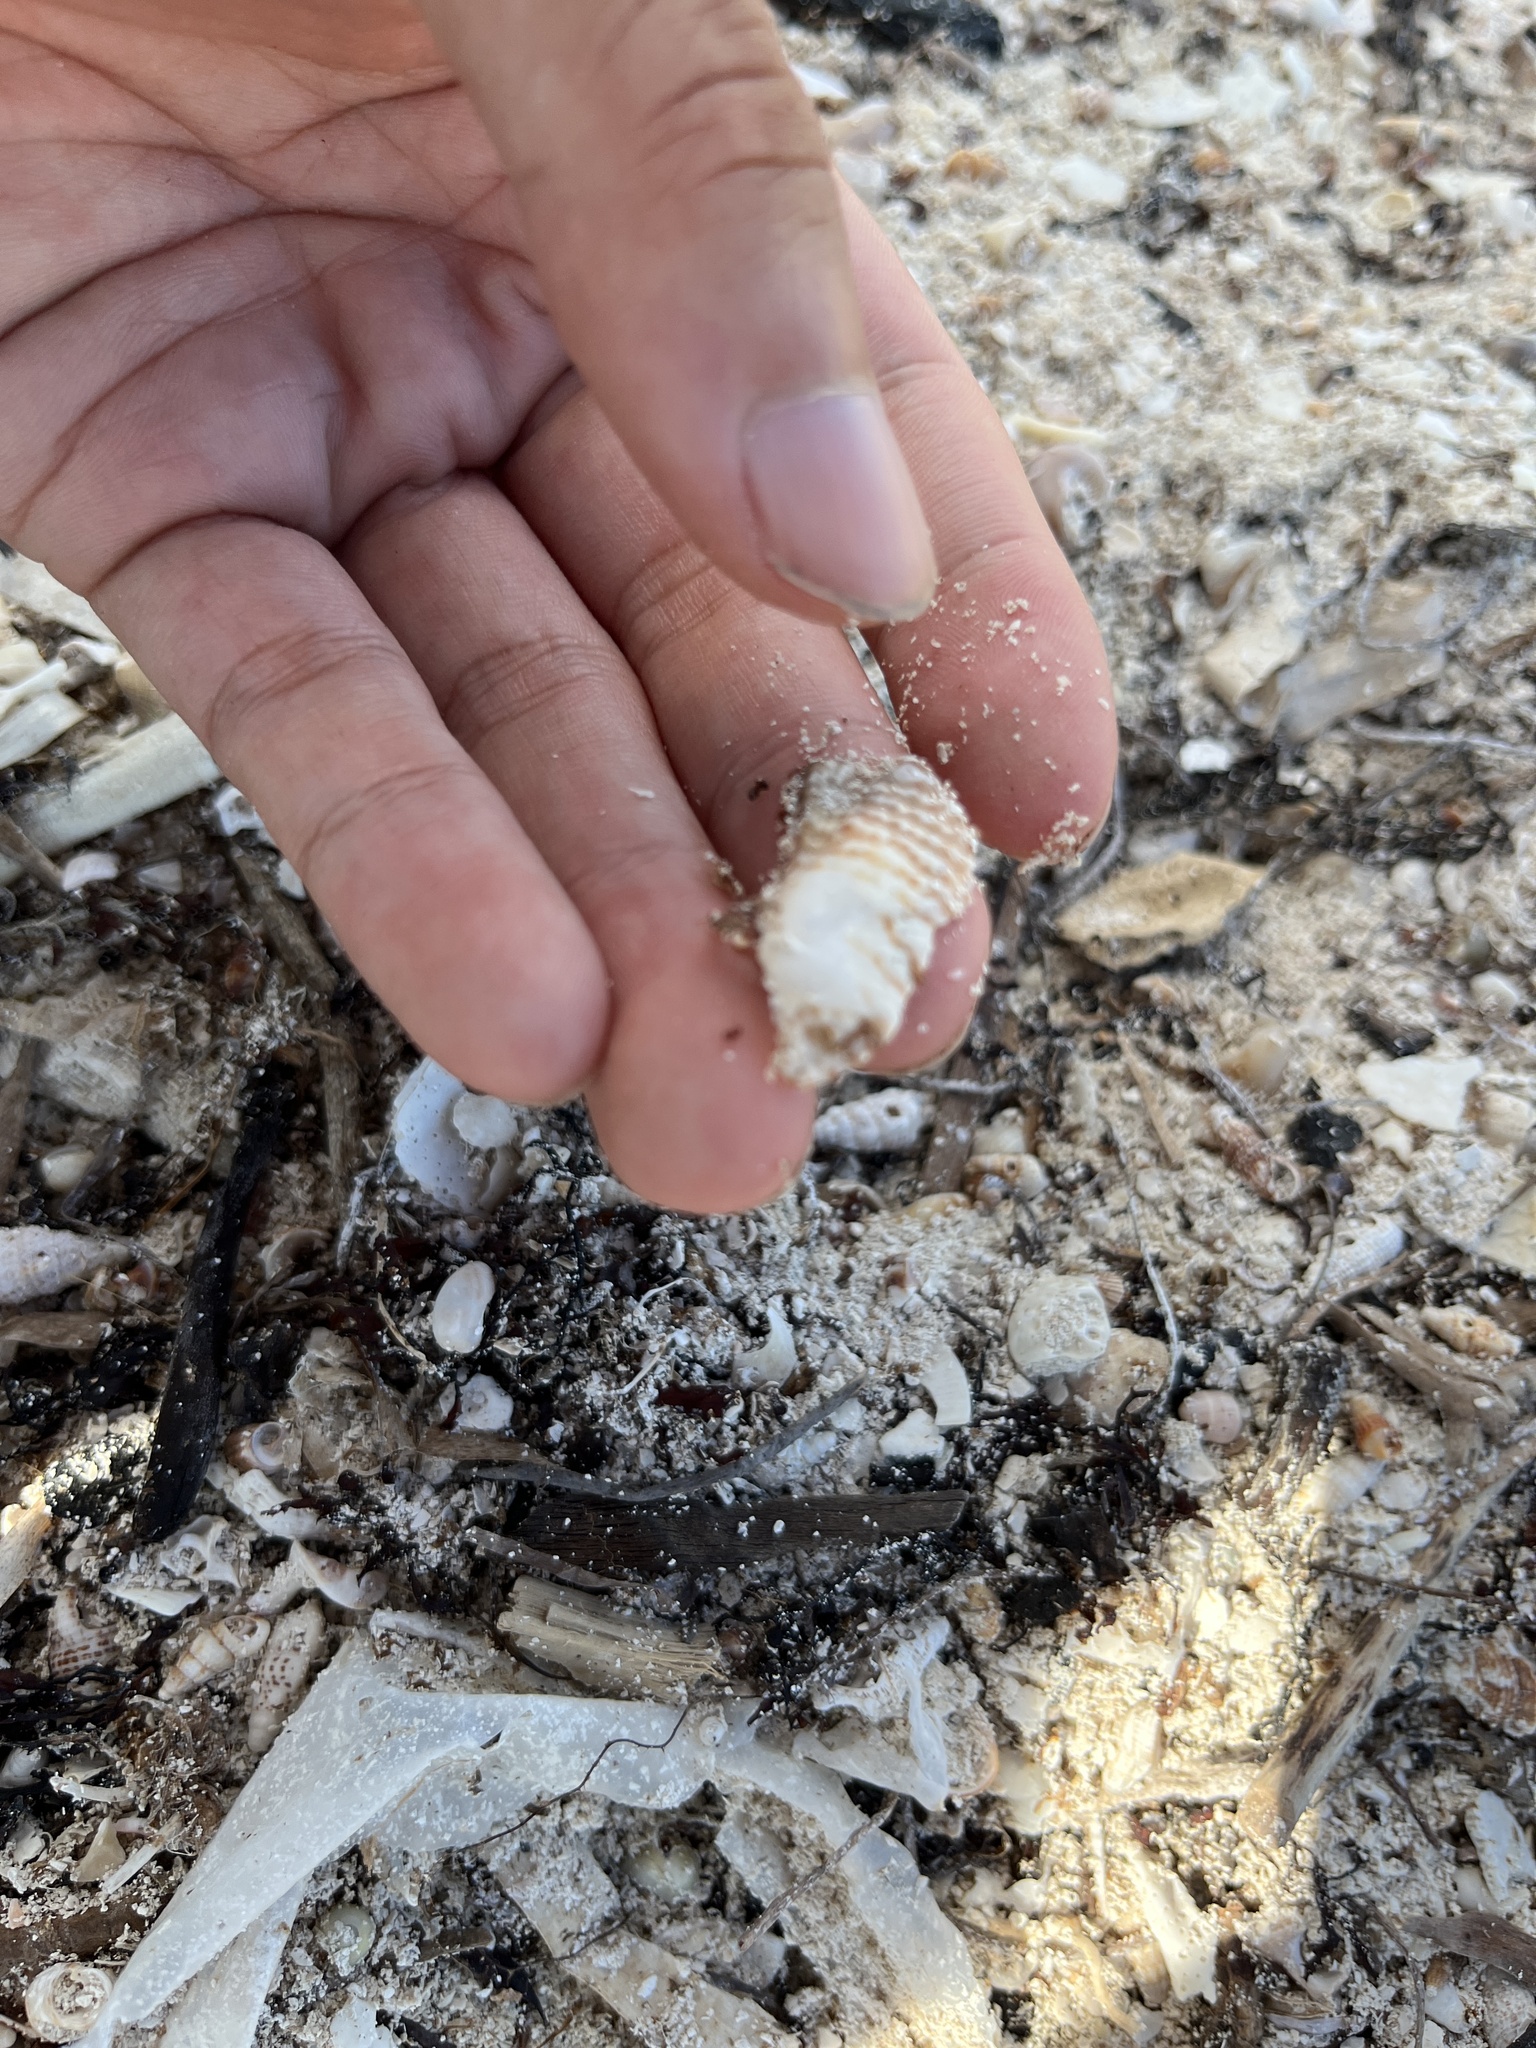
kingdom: Animalia
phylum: Mollusca
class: Bivalvia
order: Arcida
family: Arcidae
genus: Arca
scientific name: Arca zebra
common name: Atlantic turkey wing
